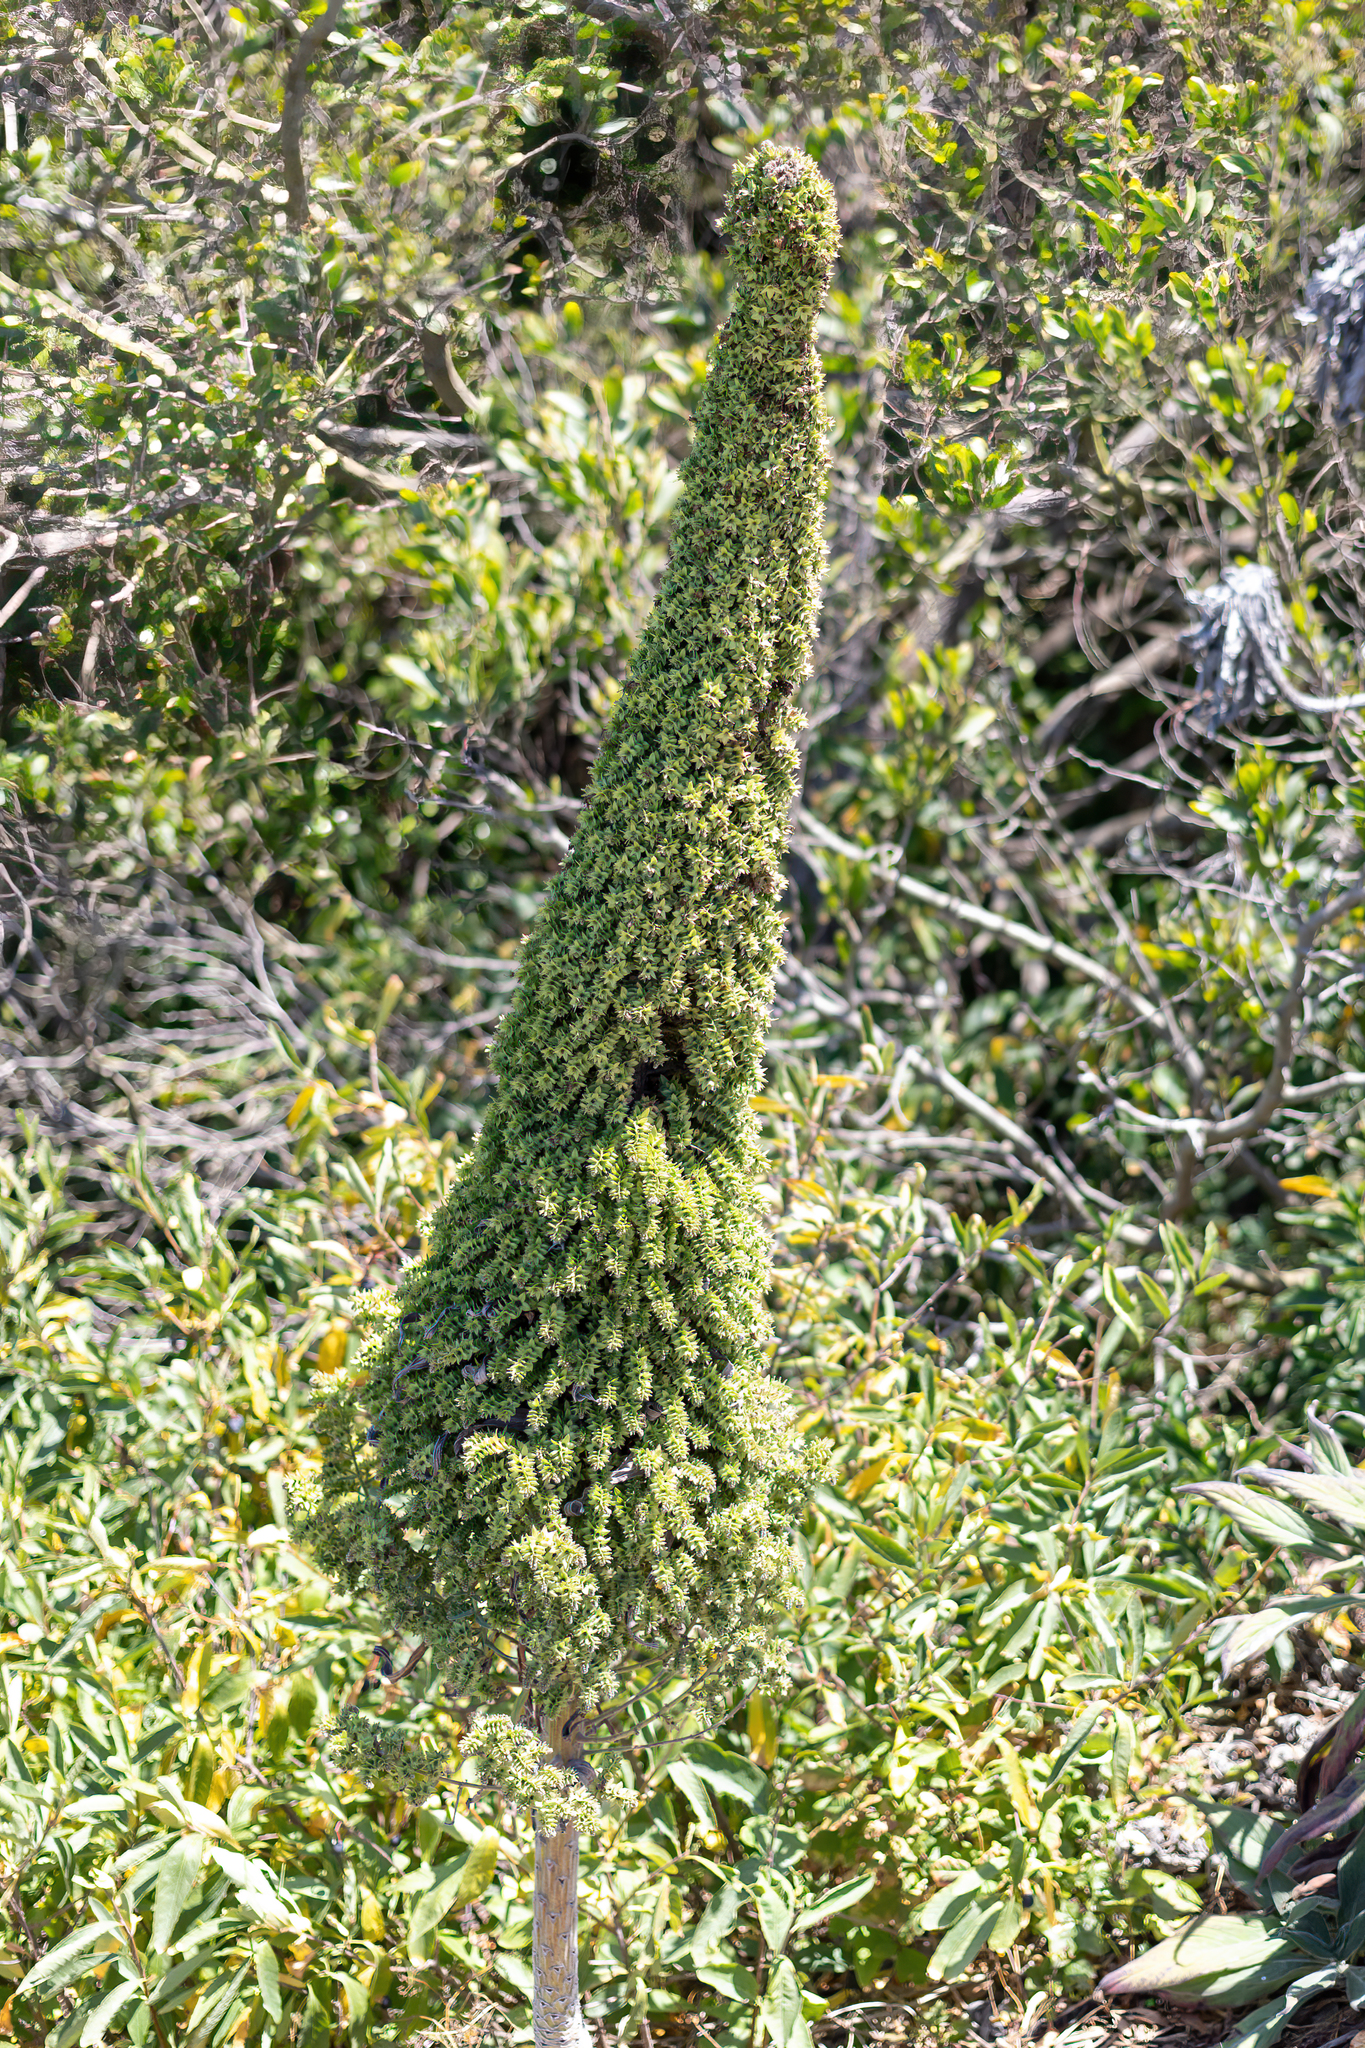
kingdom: Plantae
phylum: Tracheophyta
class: Magnoliopsida
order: Boraginales
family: Boraginaceae
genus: Echium
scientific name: Echium pininana
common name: Giant viper's-bugloss
